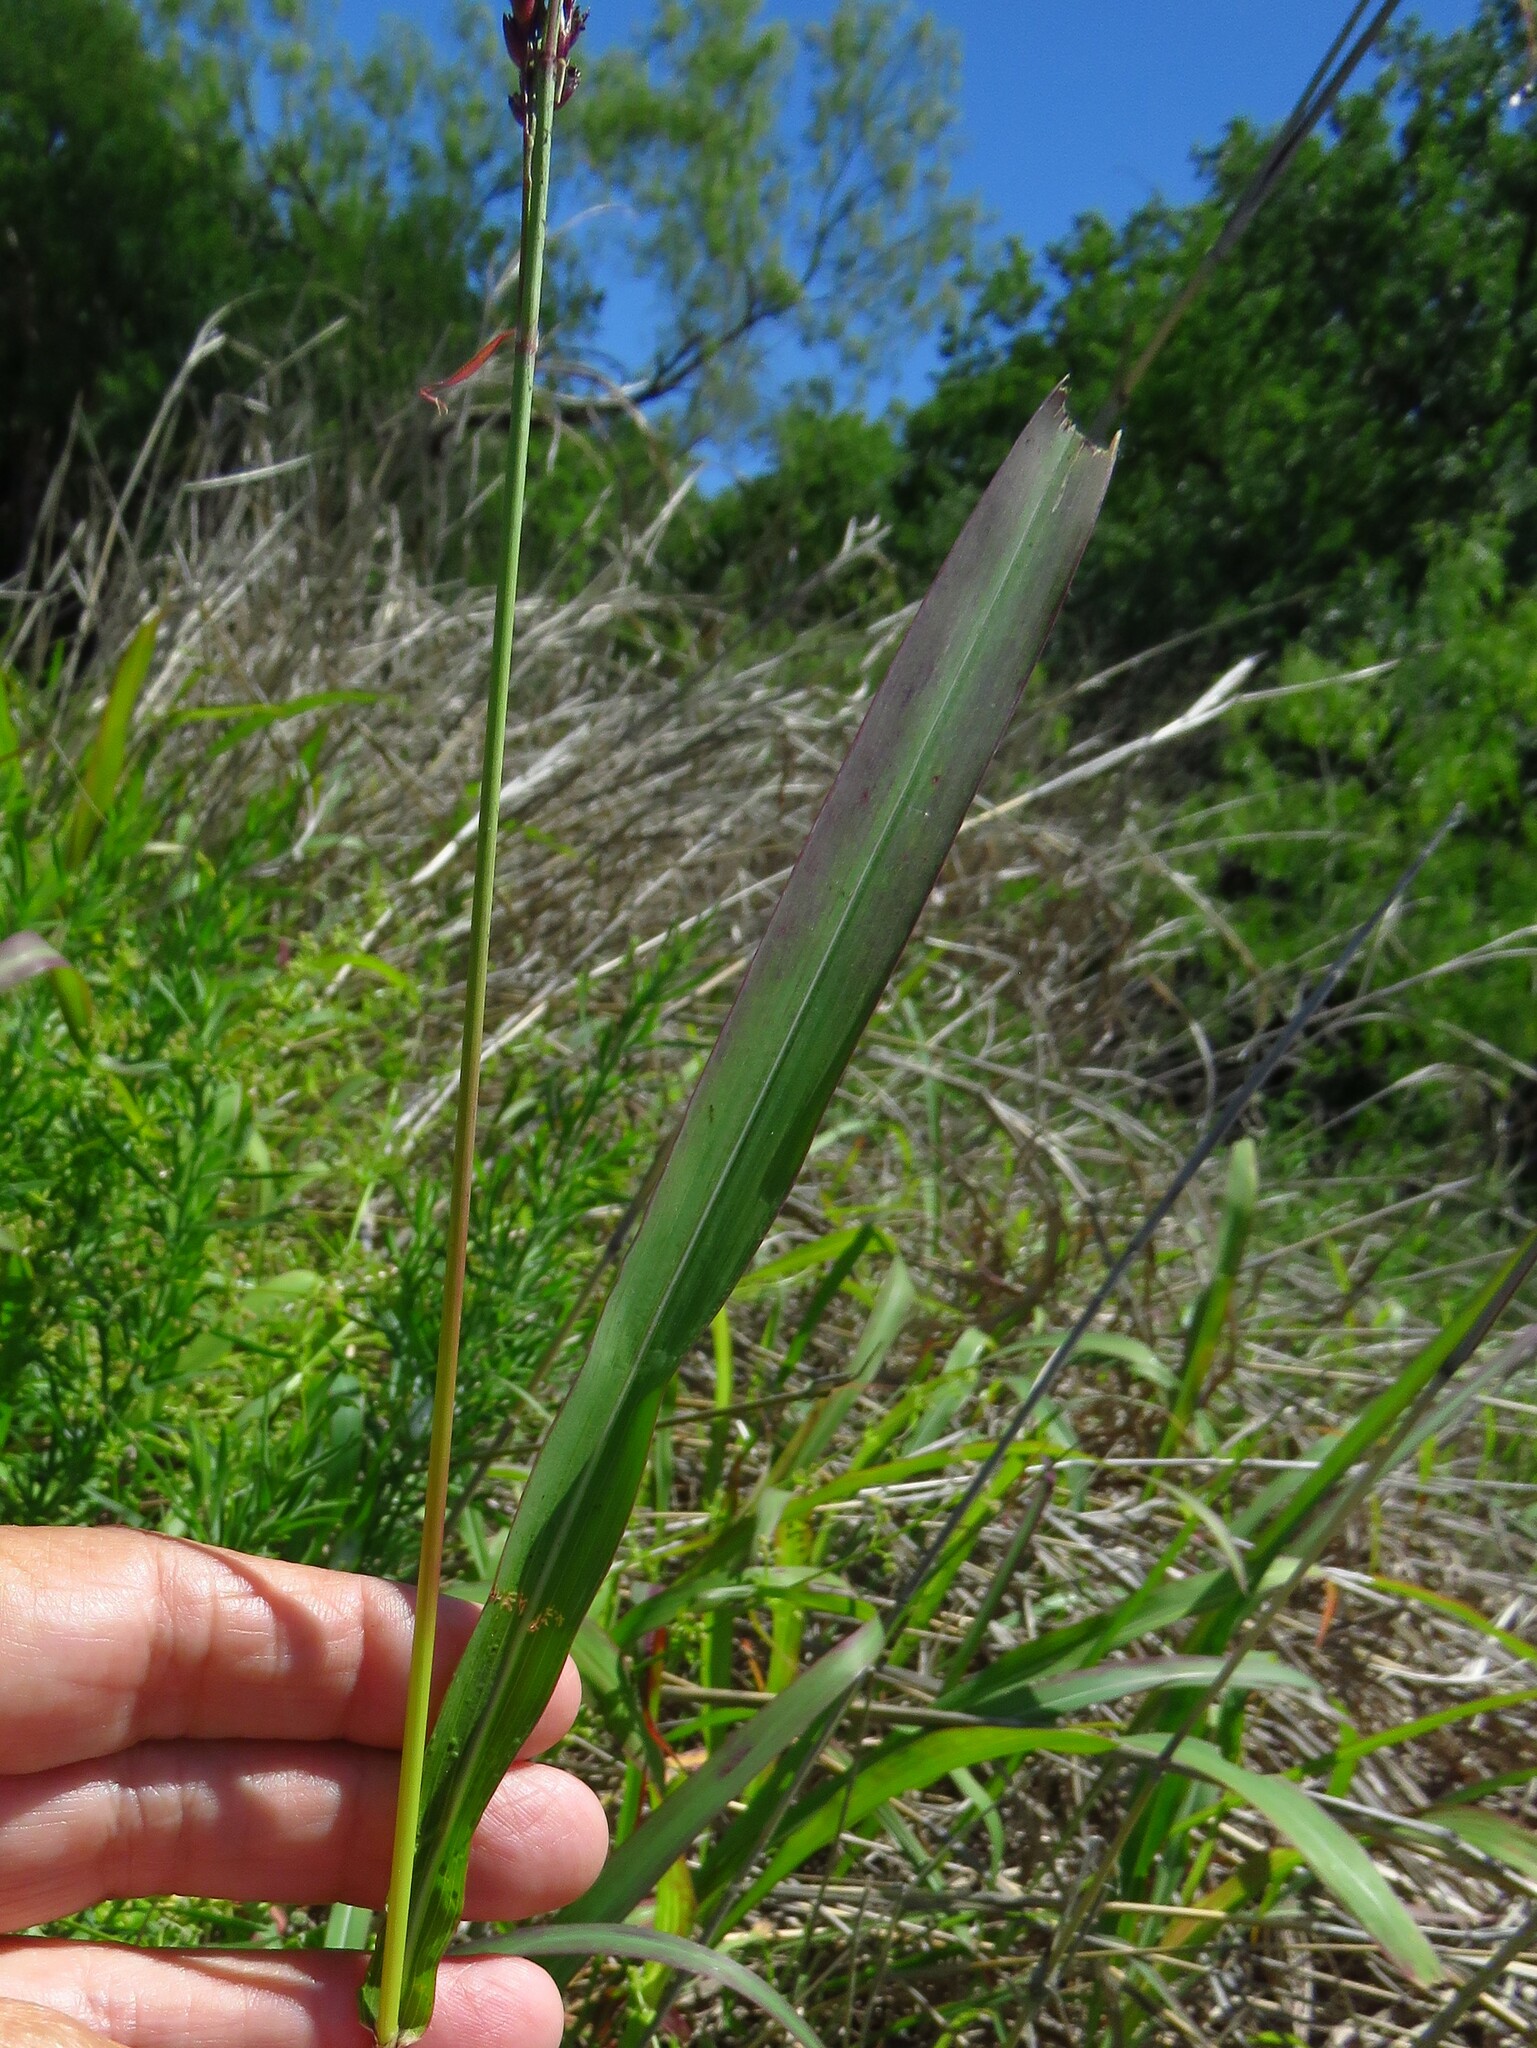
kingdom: Plantae
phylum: Tracheophyta
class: Liliopsida
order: Poales
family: Poaceae
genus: Sorghum
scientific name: Sorghum halepense
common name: Johnson-grass
